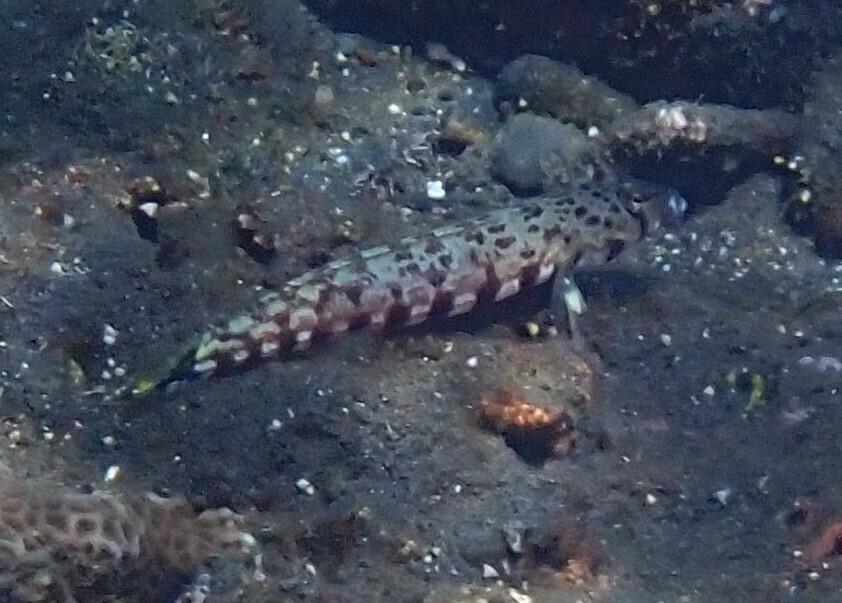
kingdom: Animalia
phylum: Chordata
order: Perciformes
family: Pinguipedidae
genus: Parapercis
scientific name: Parapercis millepunctata
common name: Black-dotted sandperch
